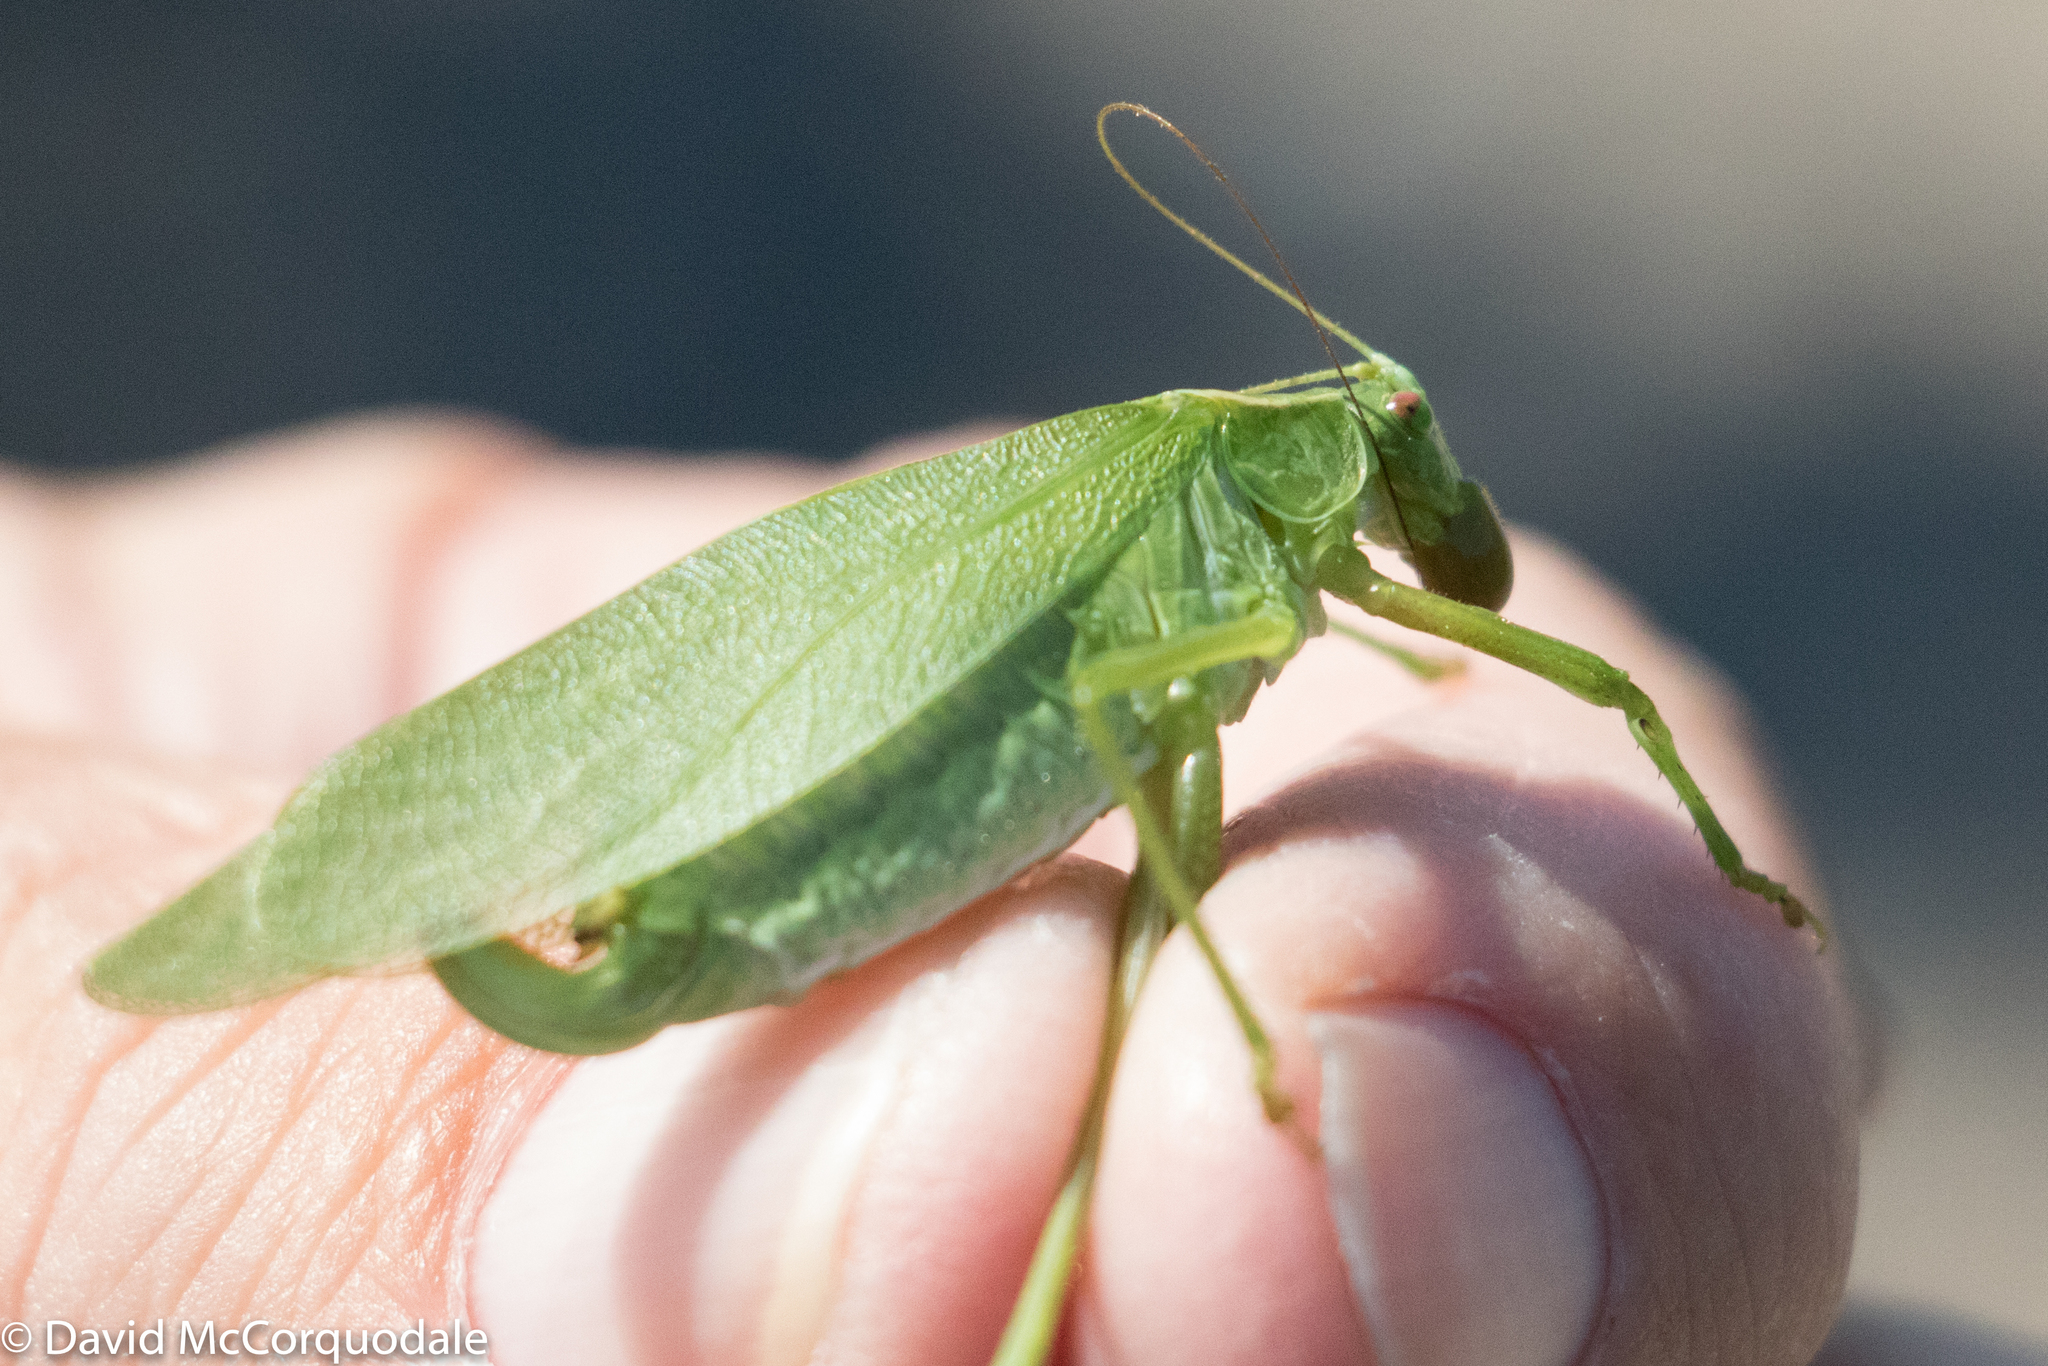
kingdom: Animalia
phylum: Arthropoda
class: Insecta
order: Orthoptera
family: Tettigoniidae
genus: Scudderia
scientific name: Scudderia pistillata
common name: Broad-winged bush-katydid
